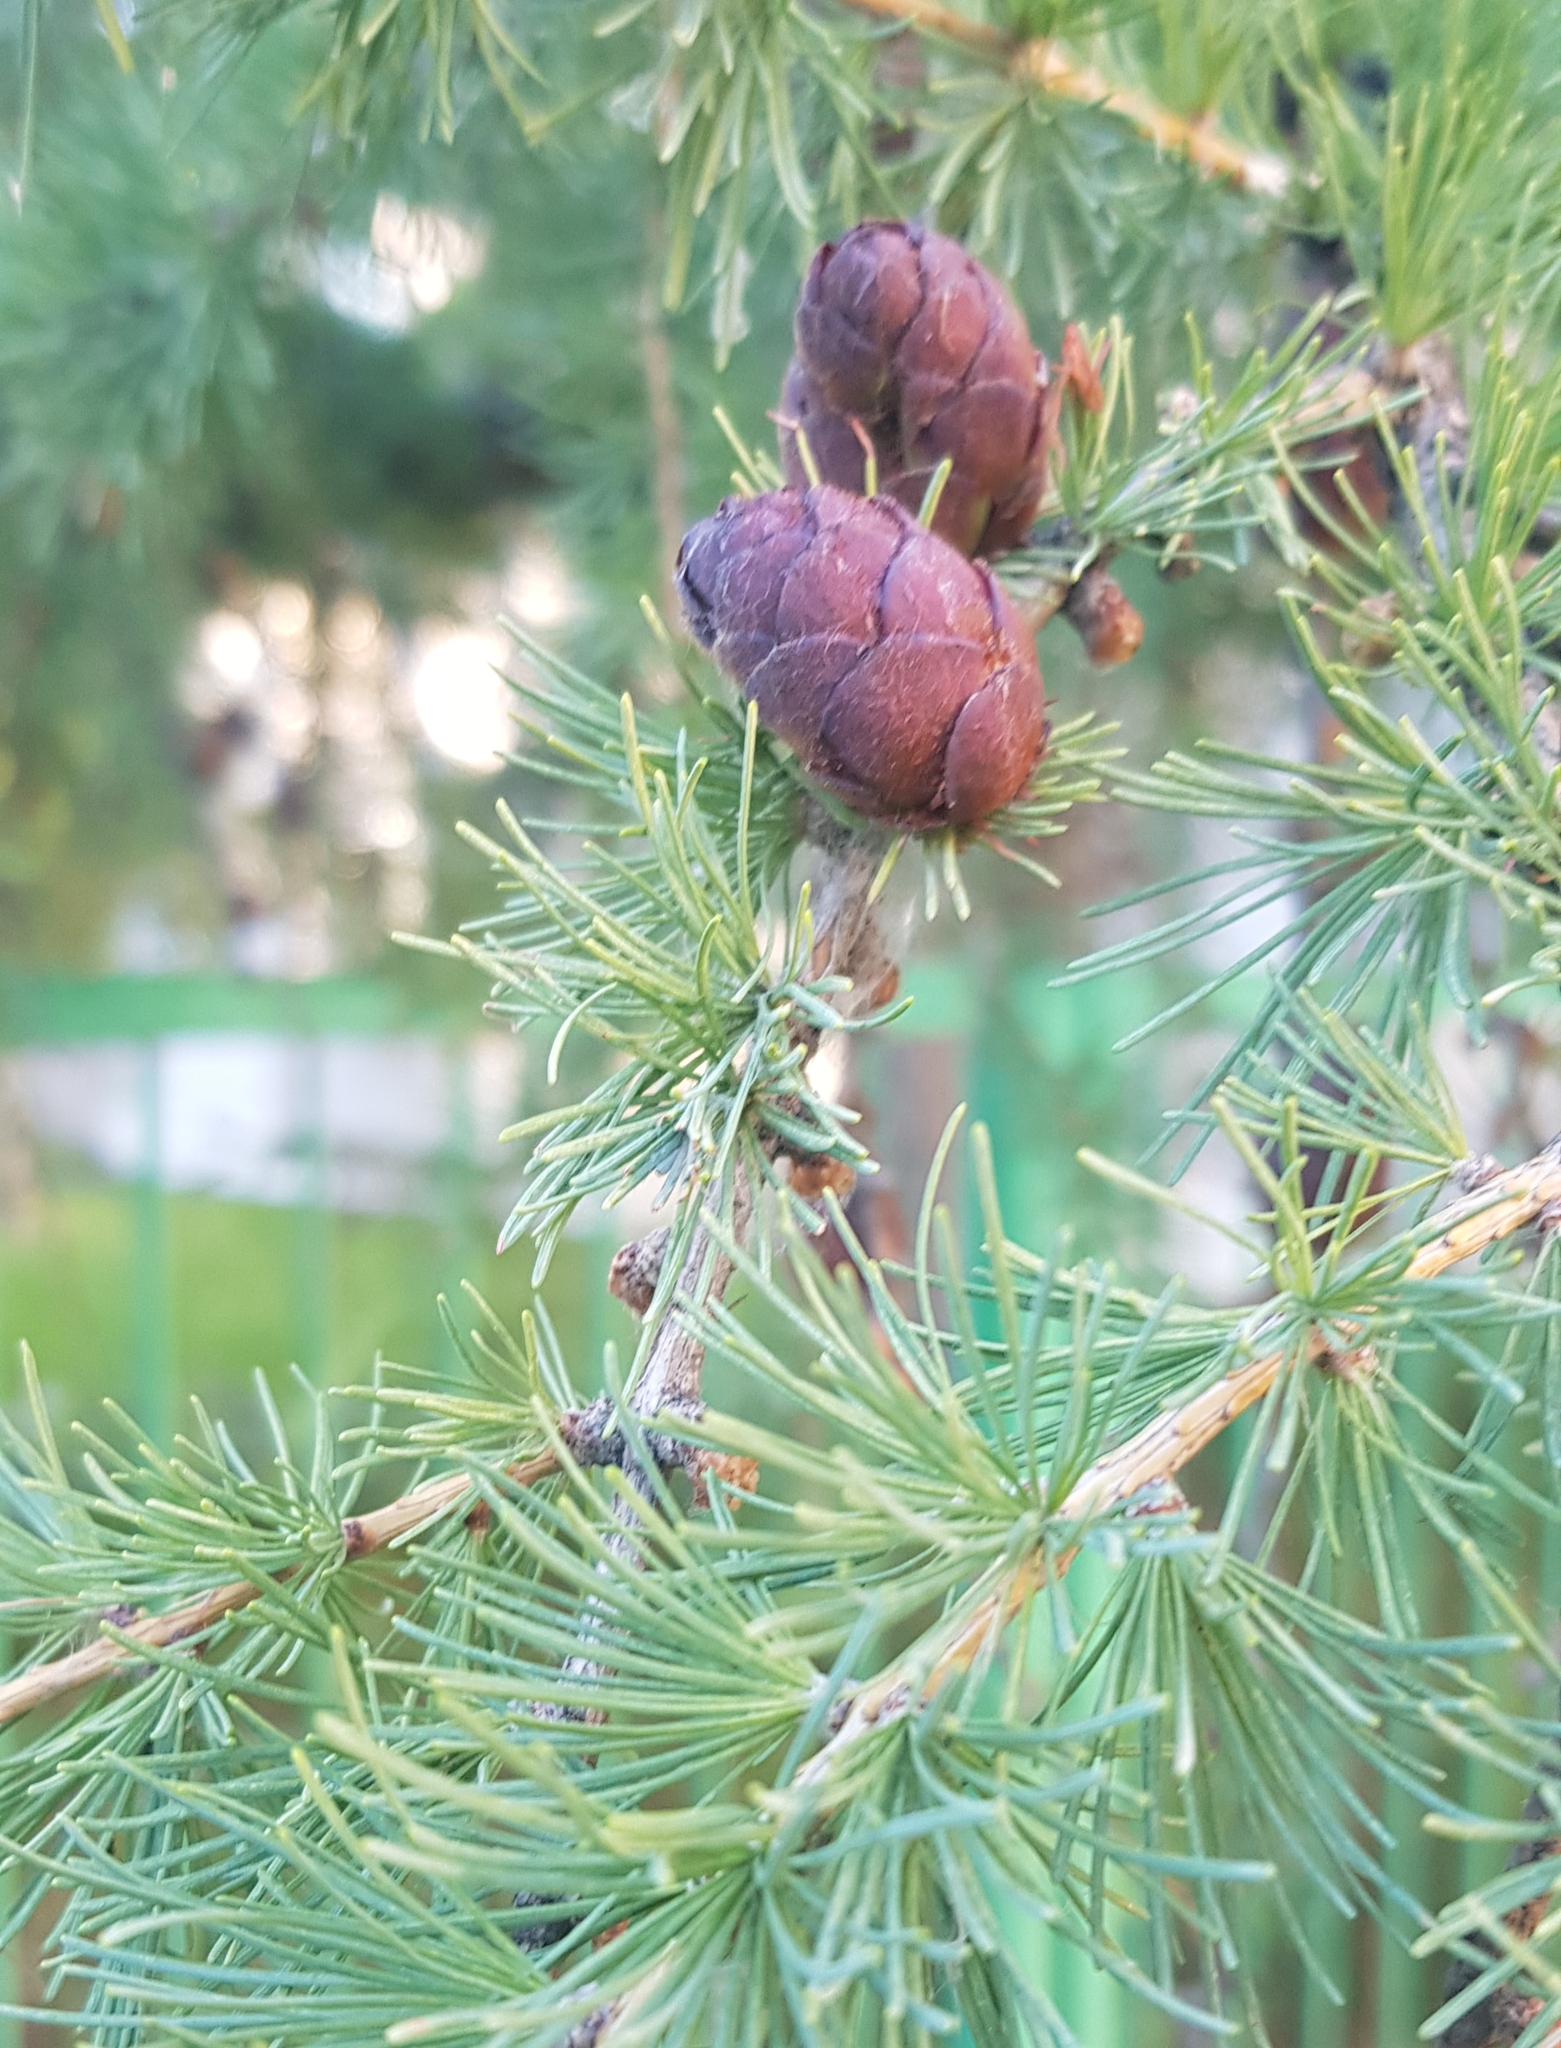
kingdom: Plantae
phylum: Tracheophyta
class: Pinopsida
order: Pinales
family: Pinaceae
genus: Larix
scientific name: Larix sibirica
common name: Siberian larch
